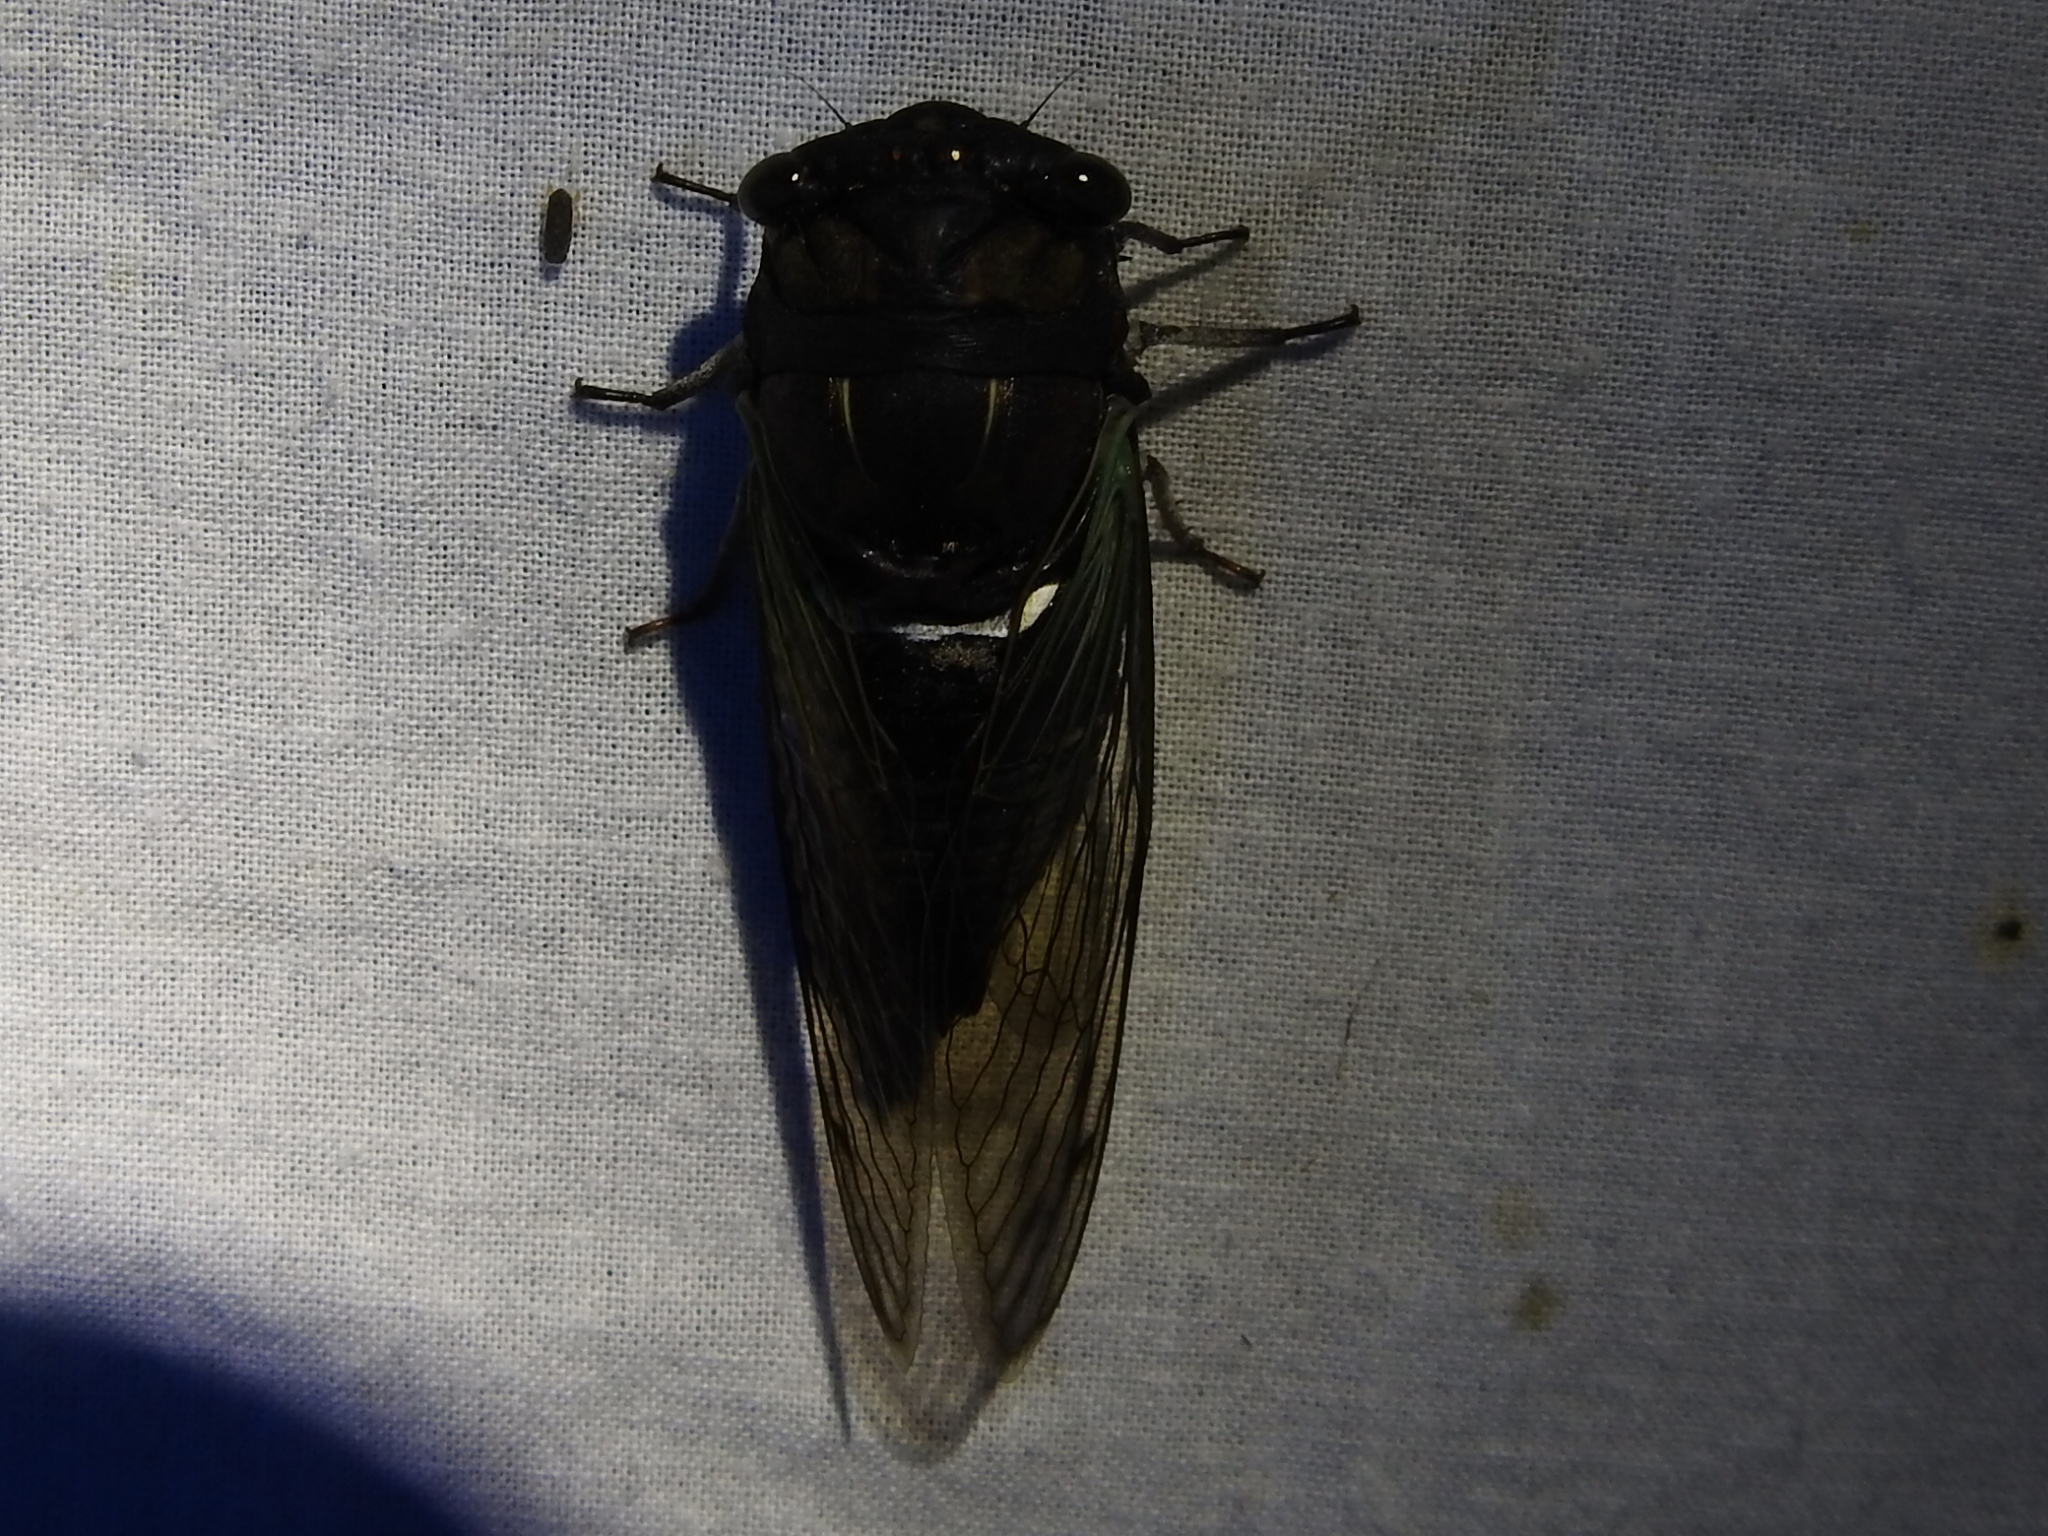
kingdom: Animalia
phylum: Arthropoda
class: Insecta
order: Hemiptera
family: Cicadidae
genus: Neotibicen
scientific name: Neotibicen lyricen
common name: Lyric cicada
